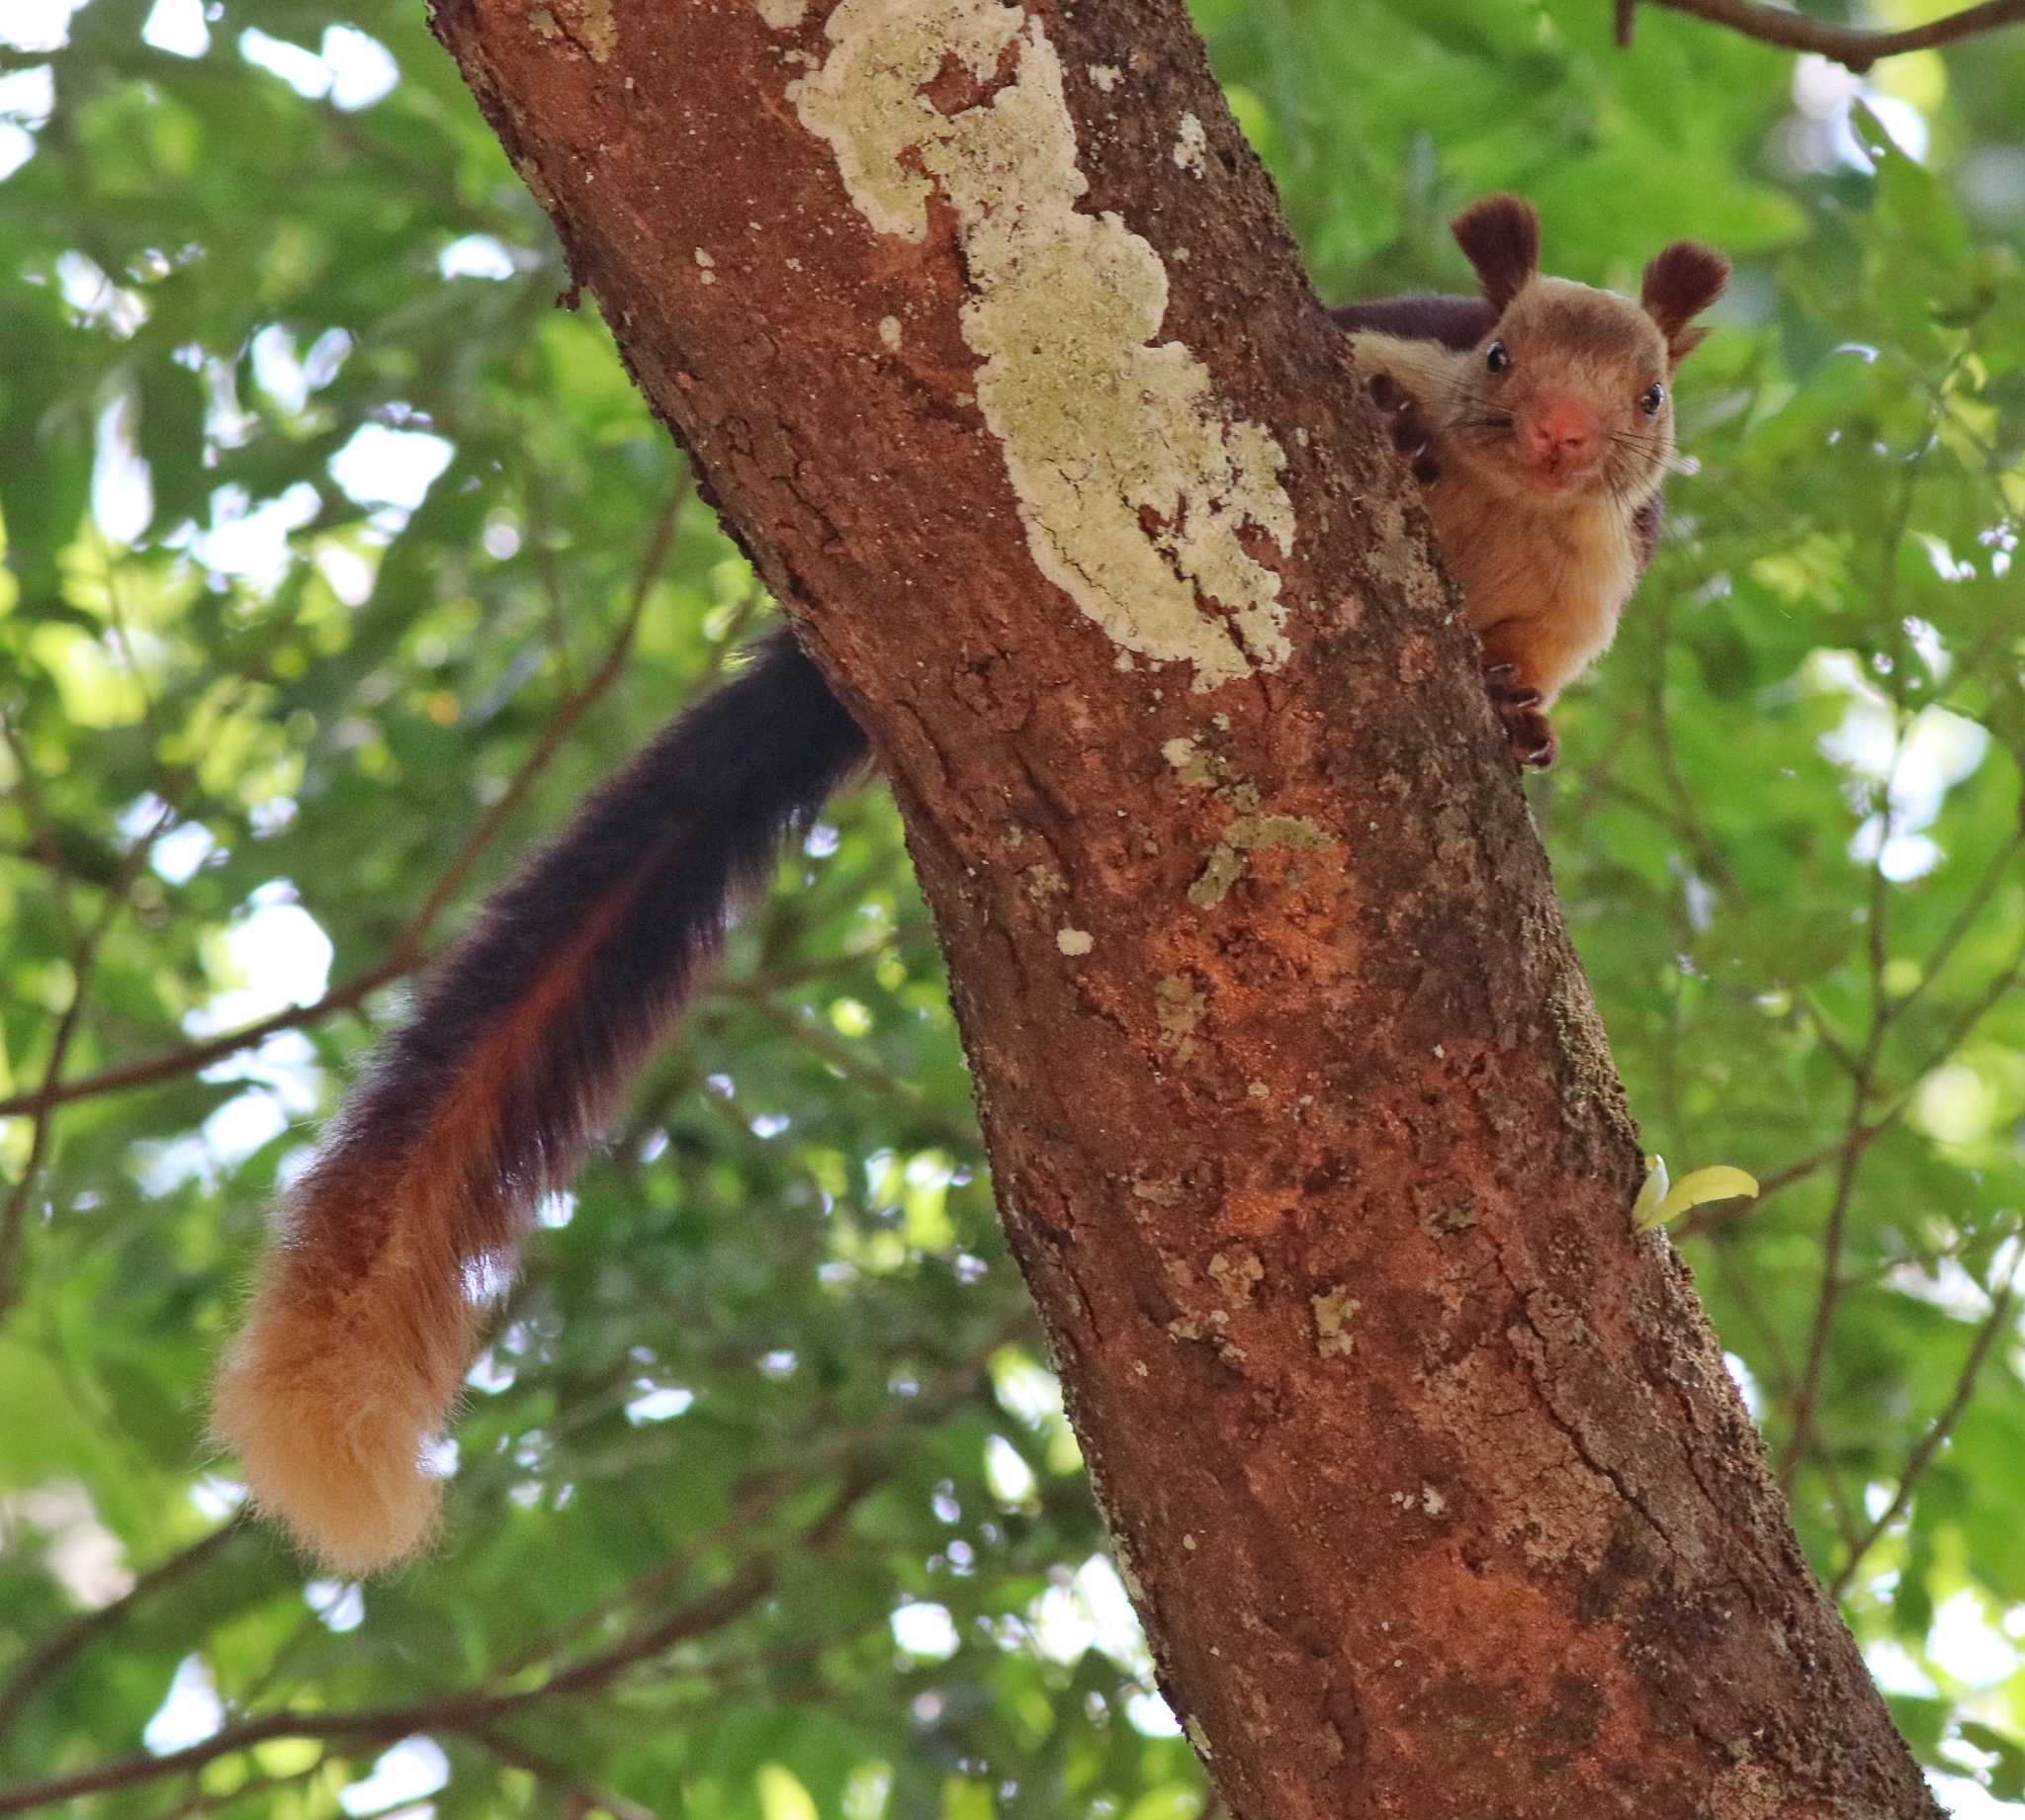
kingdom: Animalia
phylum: Chordata
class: Mammalia
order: Rodentia
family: Sciuridae
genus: Ratufa
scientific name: Ratufa indica
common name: Indian giant squirrel
